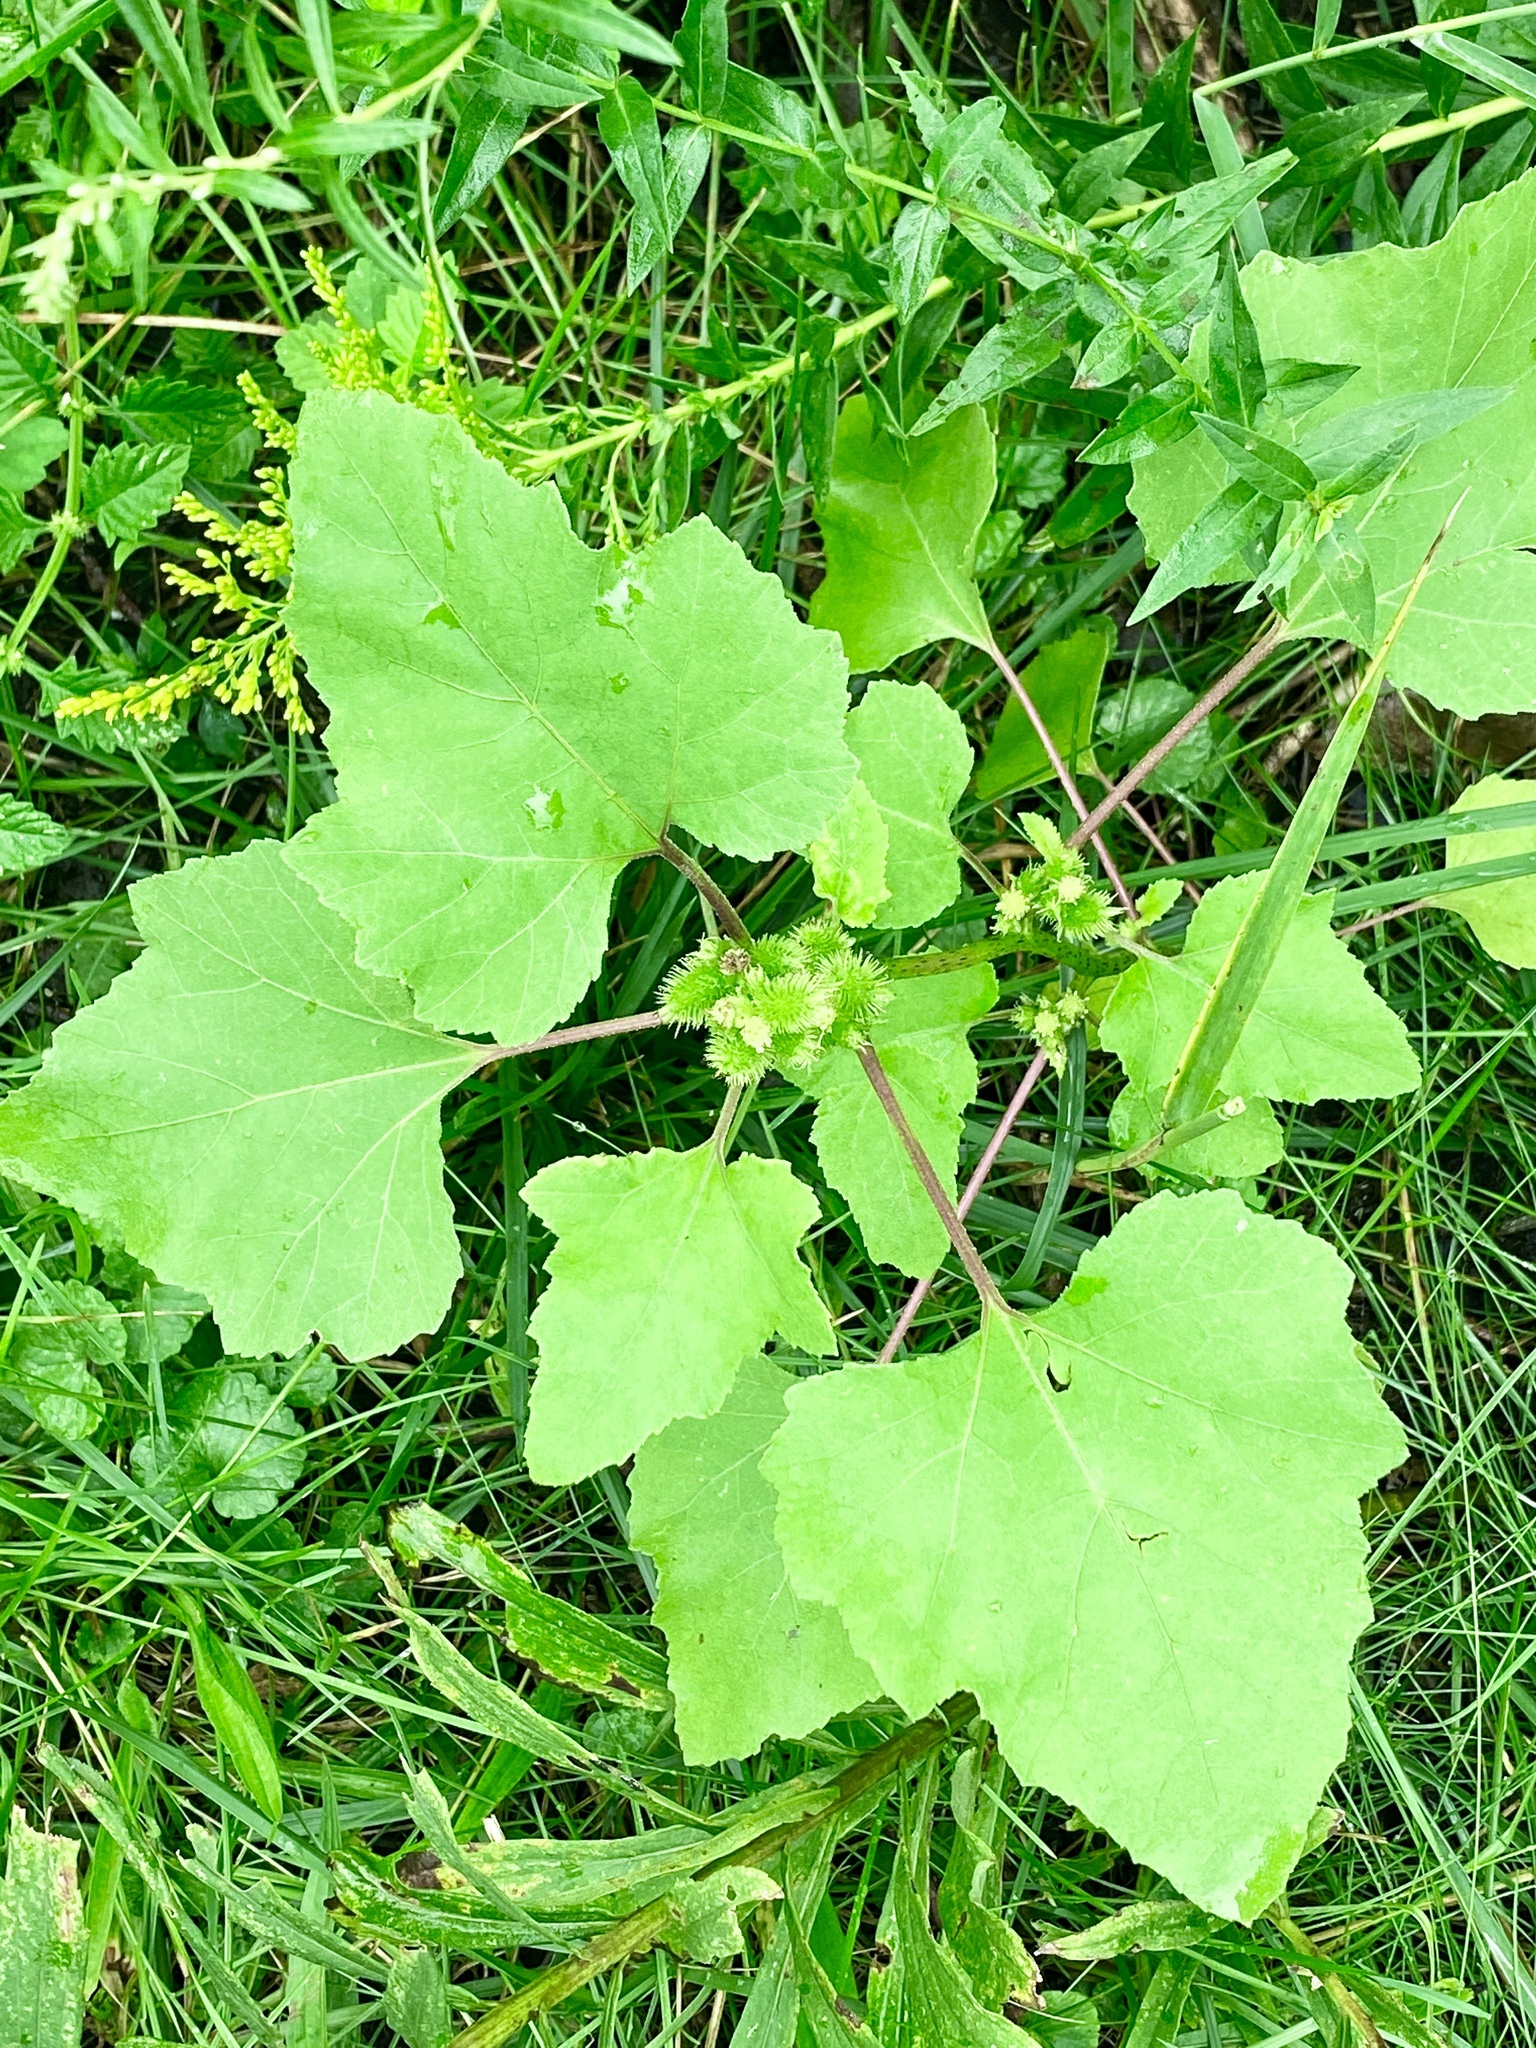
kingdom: Plantae
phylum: Tracheophyta
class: Magnoliopsida
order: Asterales
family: Asteraceae
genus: Xanthium
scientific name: Xanthium strumarium
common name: Rough cocklebur
